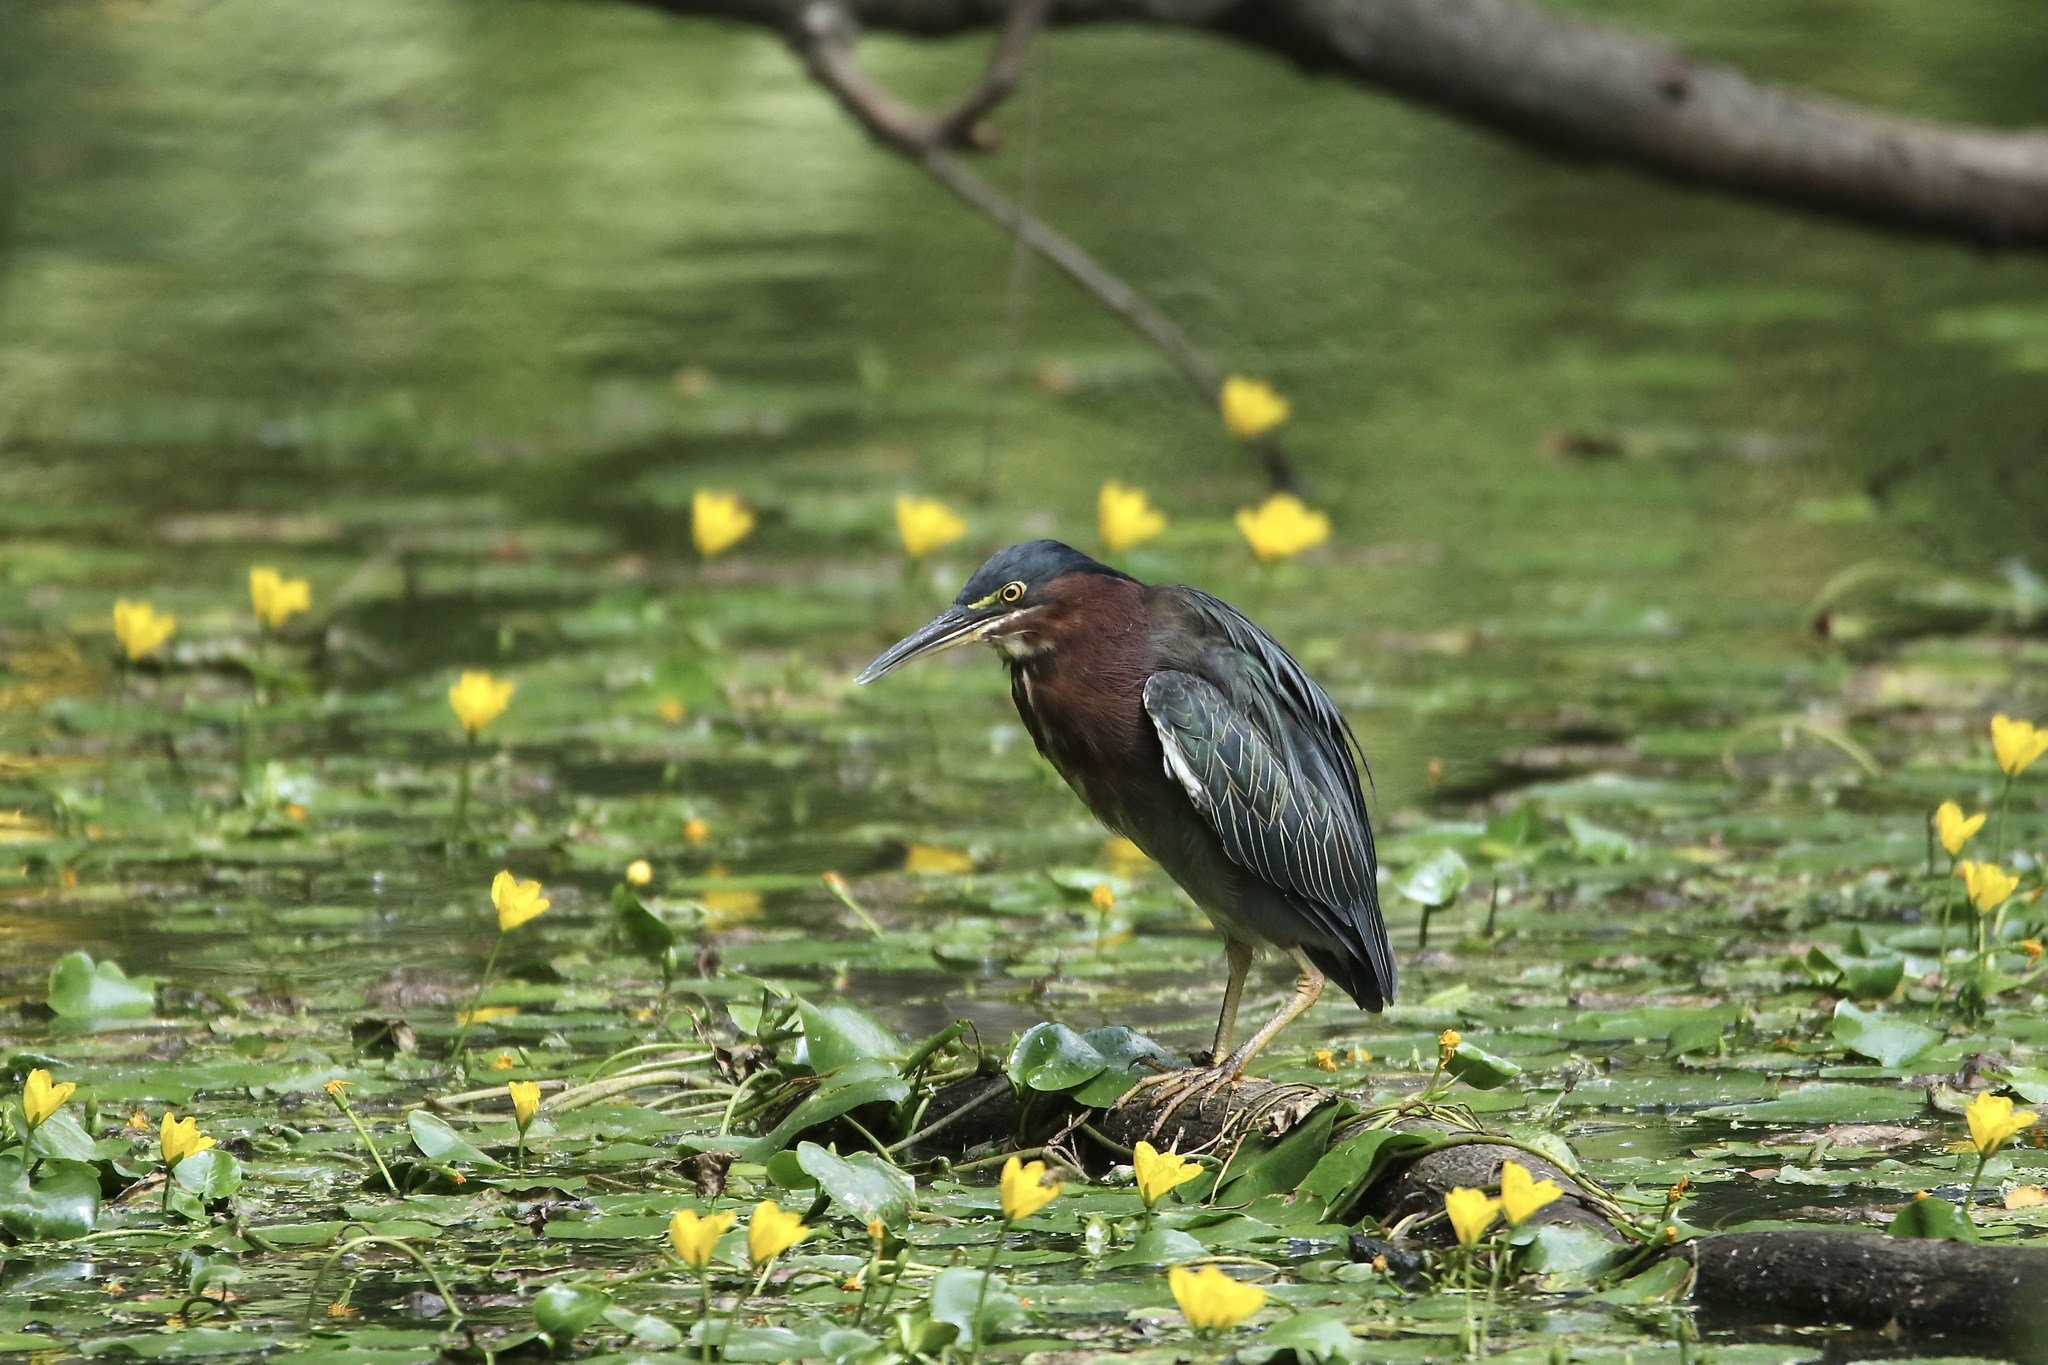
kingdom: Animalia
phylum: Chordata
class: Aves
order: Pelecaniformes
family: Ardeidae
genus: Butorides
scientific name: Butorides virescens
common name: Green heron
